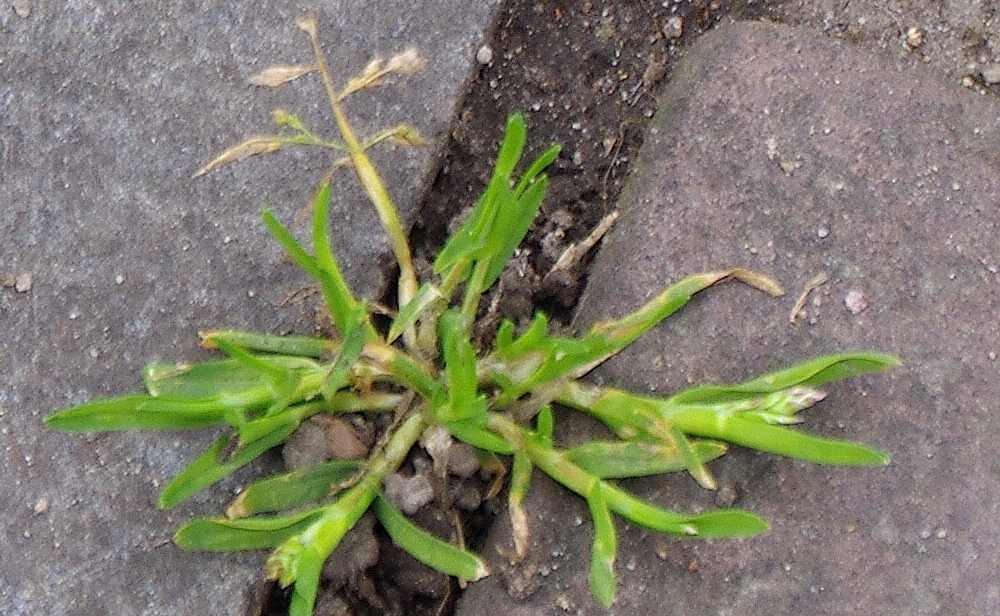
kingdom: Plantae
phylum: Tracheophyta
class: Liliopsida
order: Poales
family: Poaceae
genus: Poa
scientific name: Poa annua
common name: Annual bluegrass
